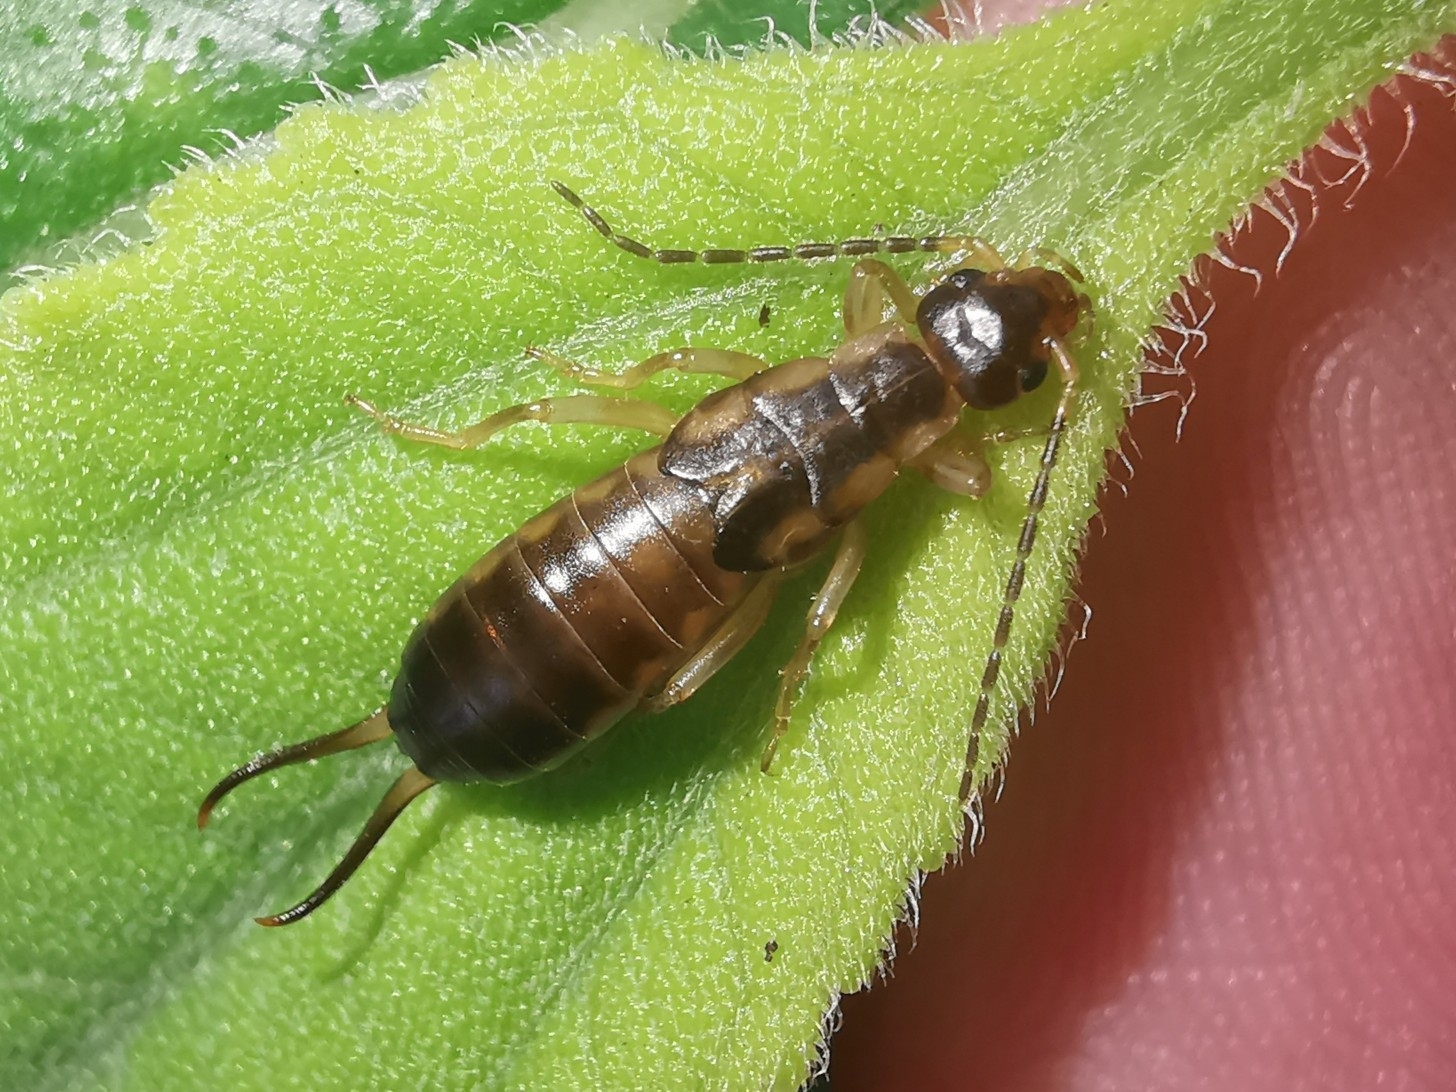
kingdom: Animalia
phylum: Arthropoda
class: Insecta
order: Dermaptera
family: Forficulidae
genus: Forficula
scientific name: Forficula
